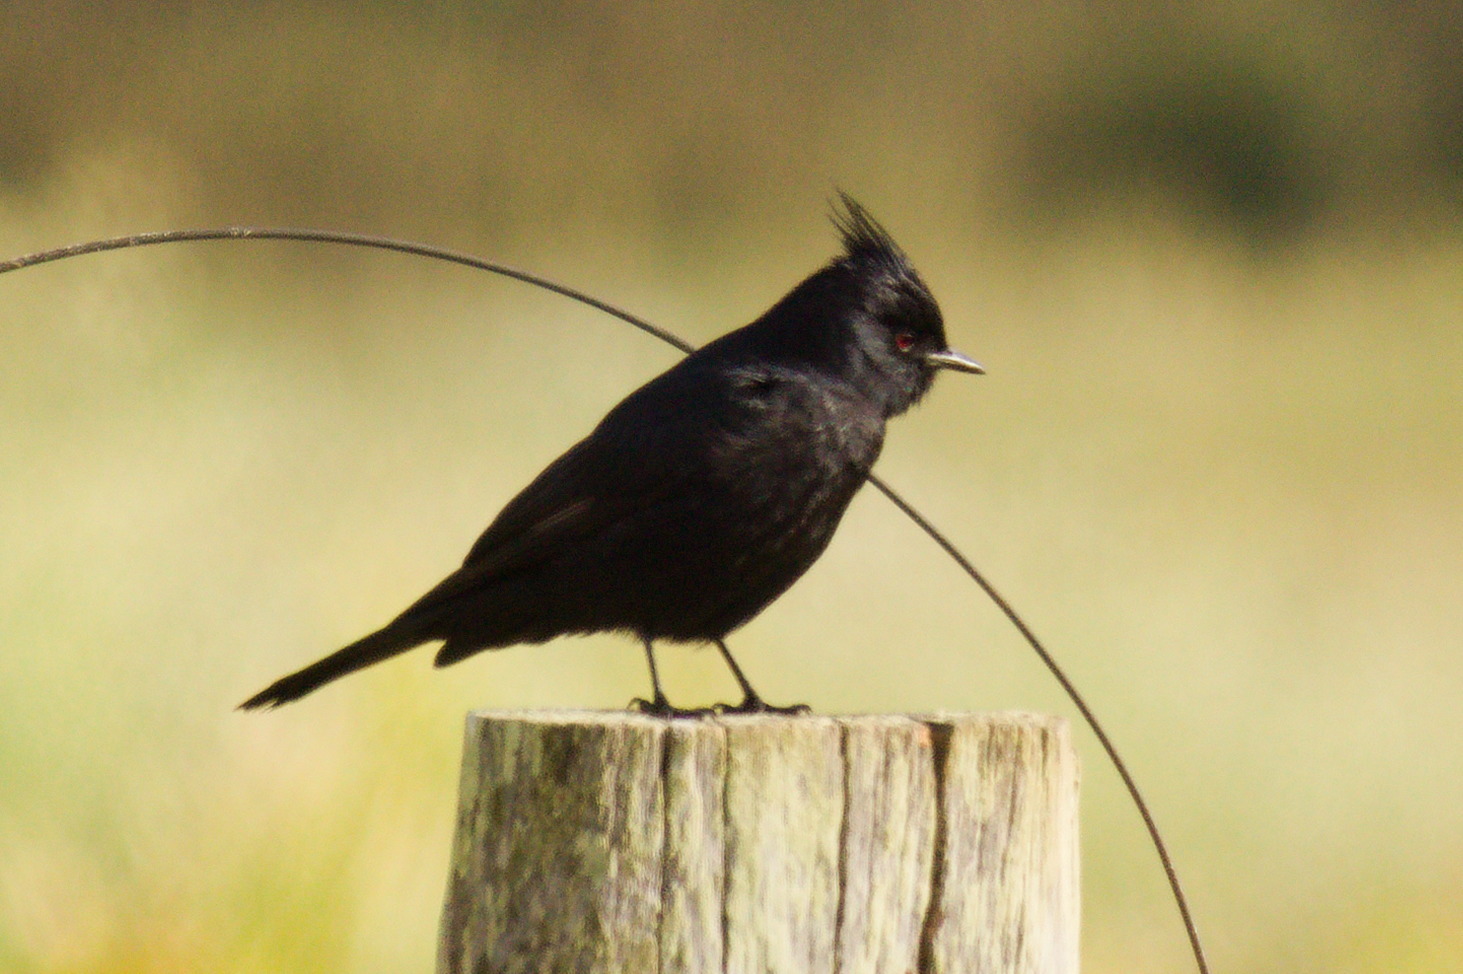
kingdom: Animalia
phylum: Chordata
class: Aves
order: Passeriformes
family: Tyrannidae
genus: Knipolegus
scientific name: Knipolegus lophotes
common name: Crested black tyrant
